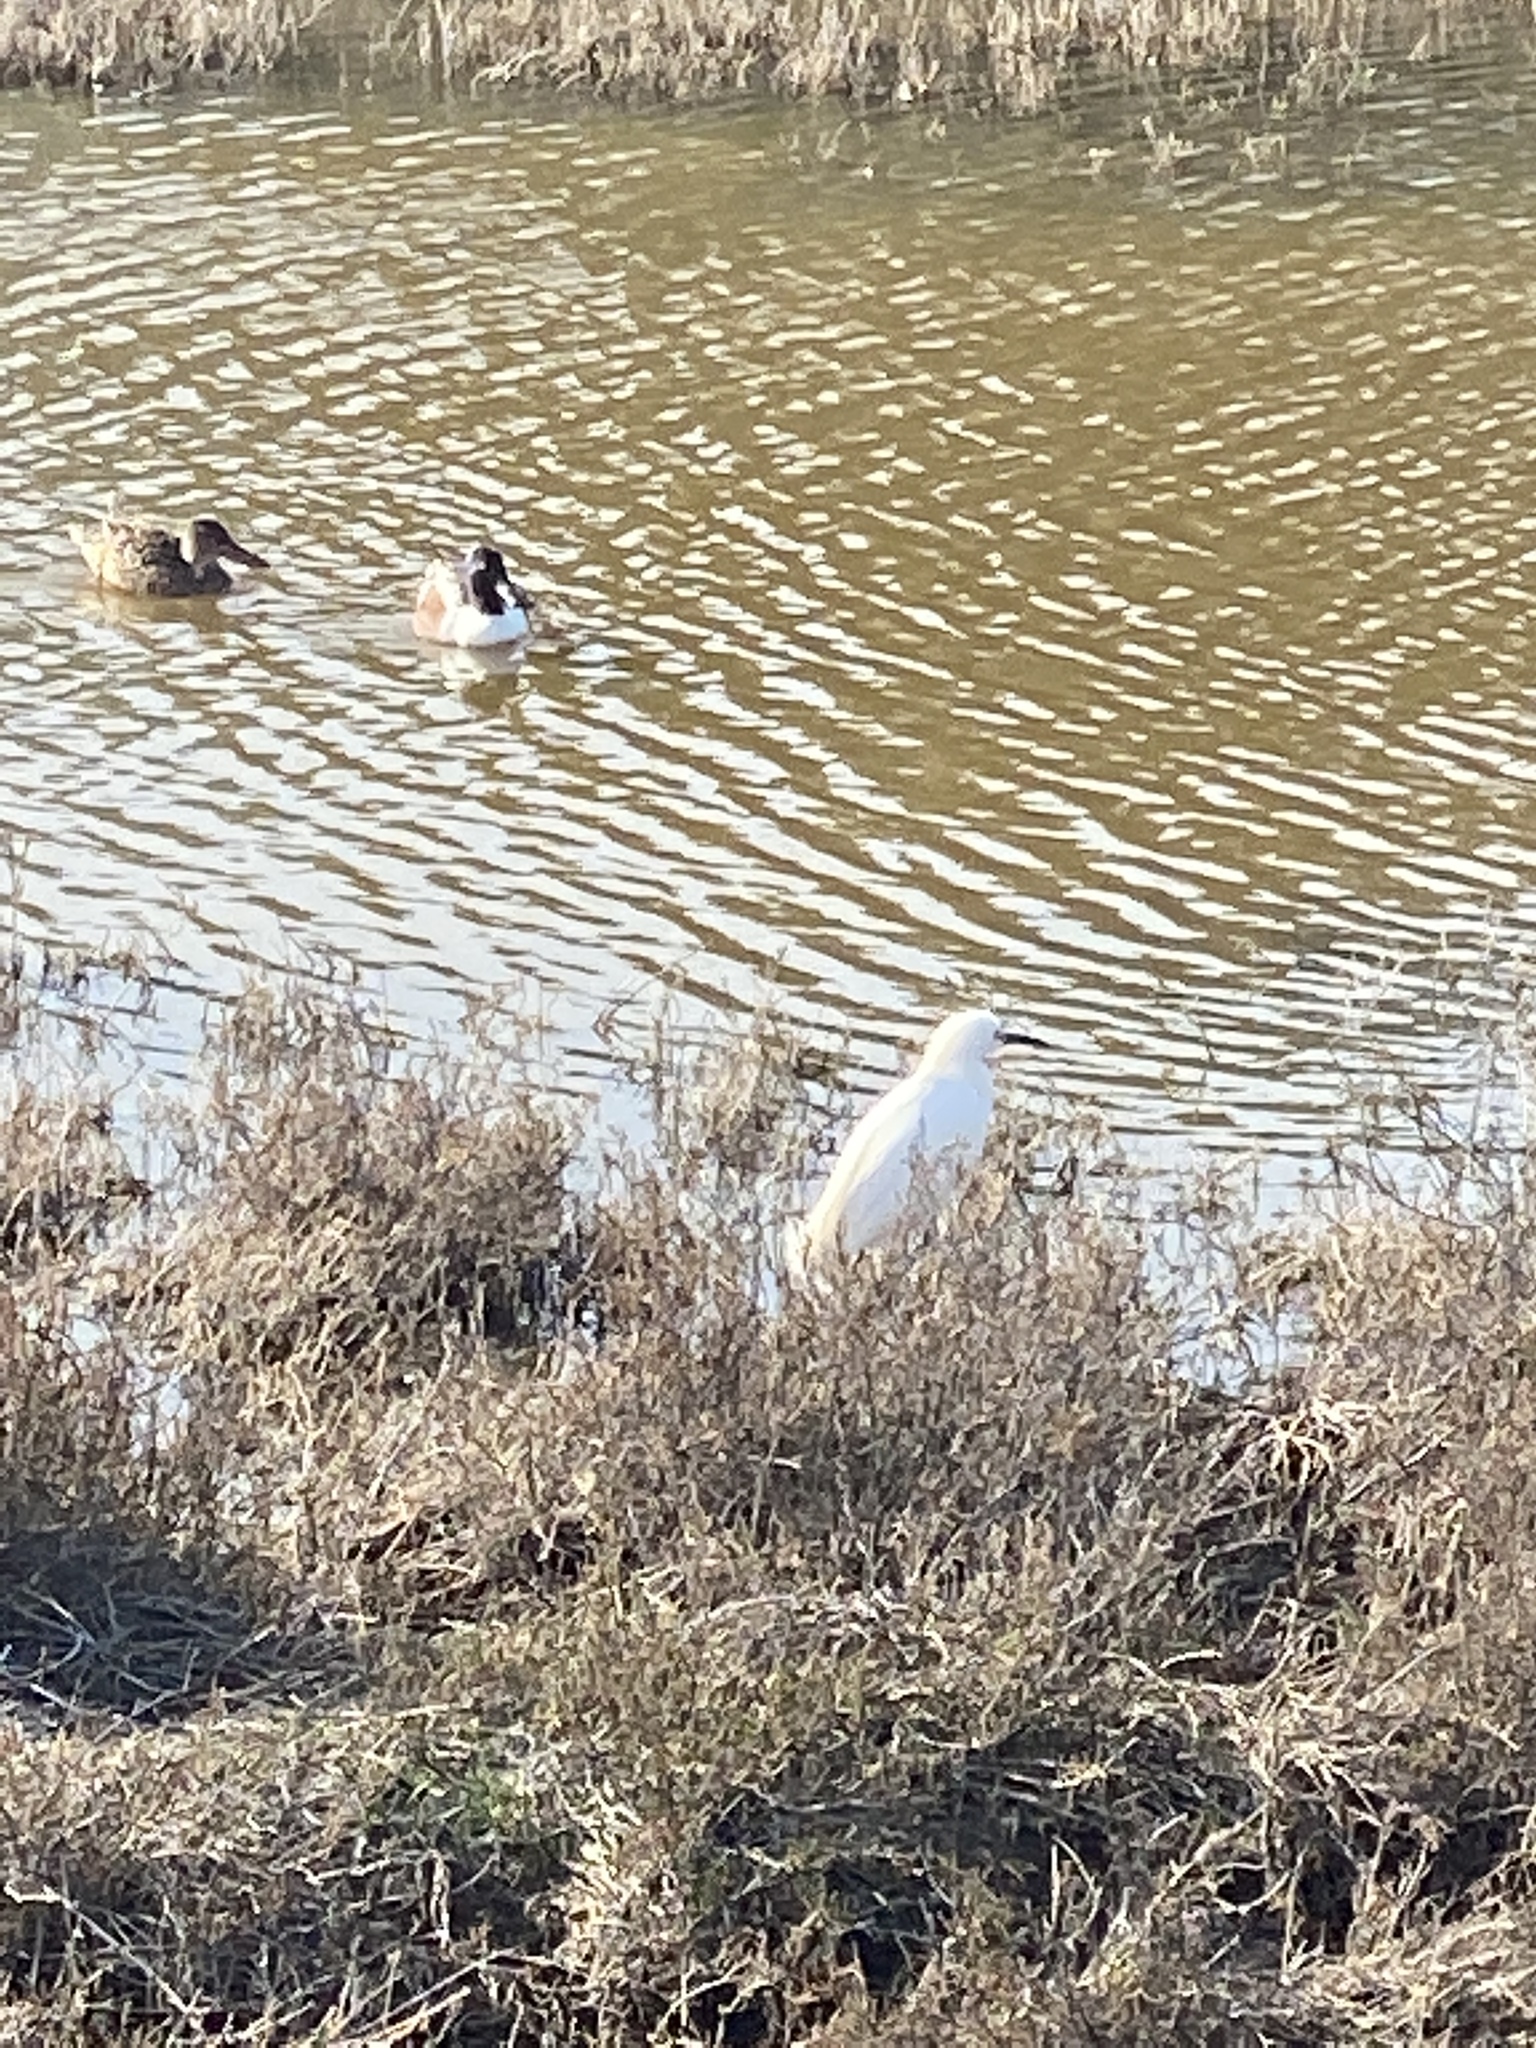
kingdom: Animalia
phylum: Chordata
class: Aves
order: Pelecaniformes
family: Ardeidae
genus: Egretta
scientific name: Egretta thula
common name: Snowy egret
